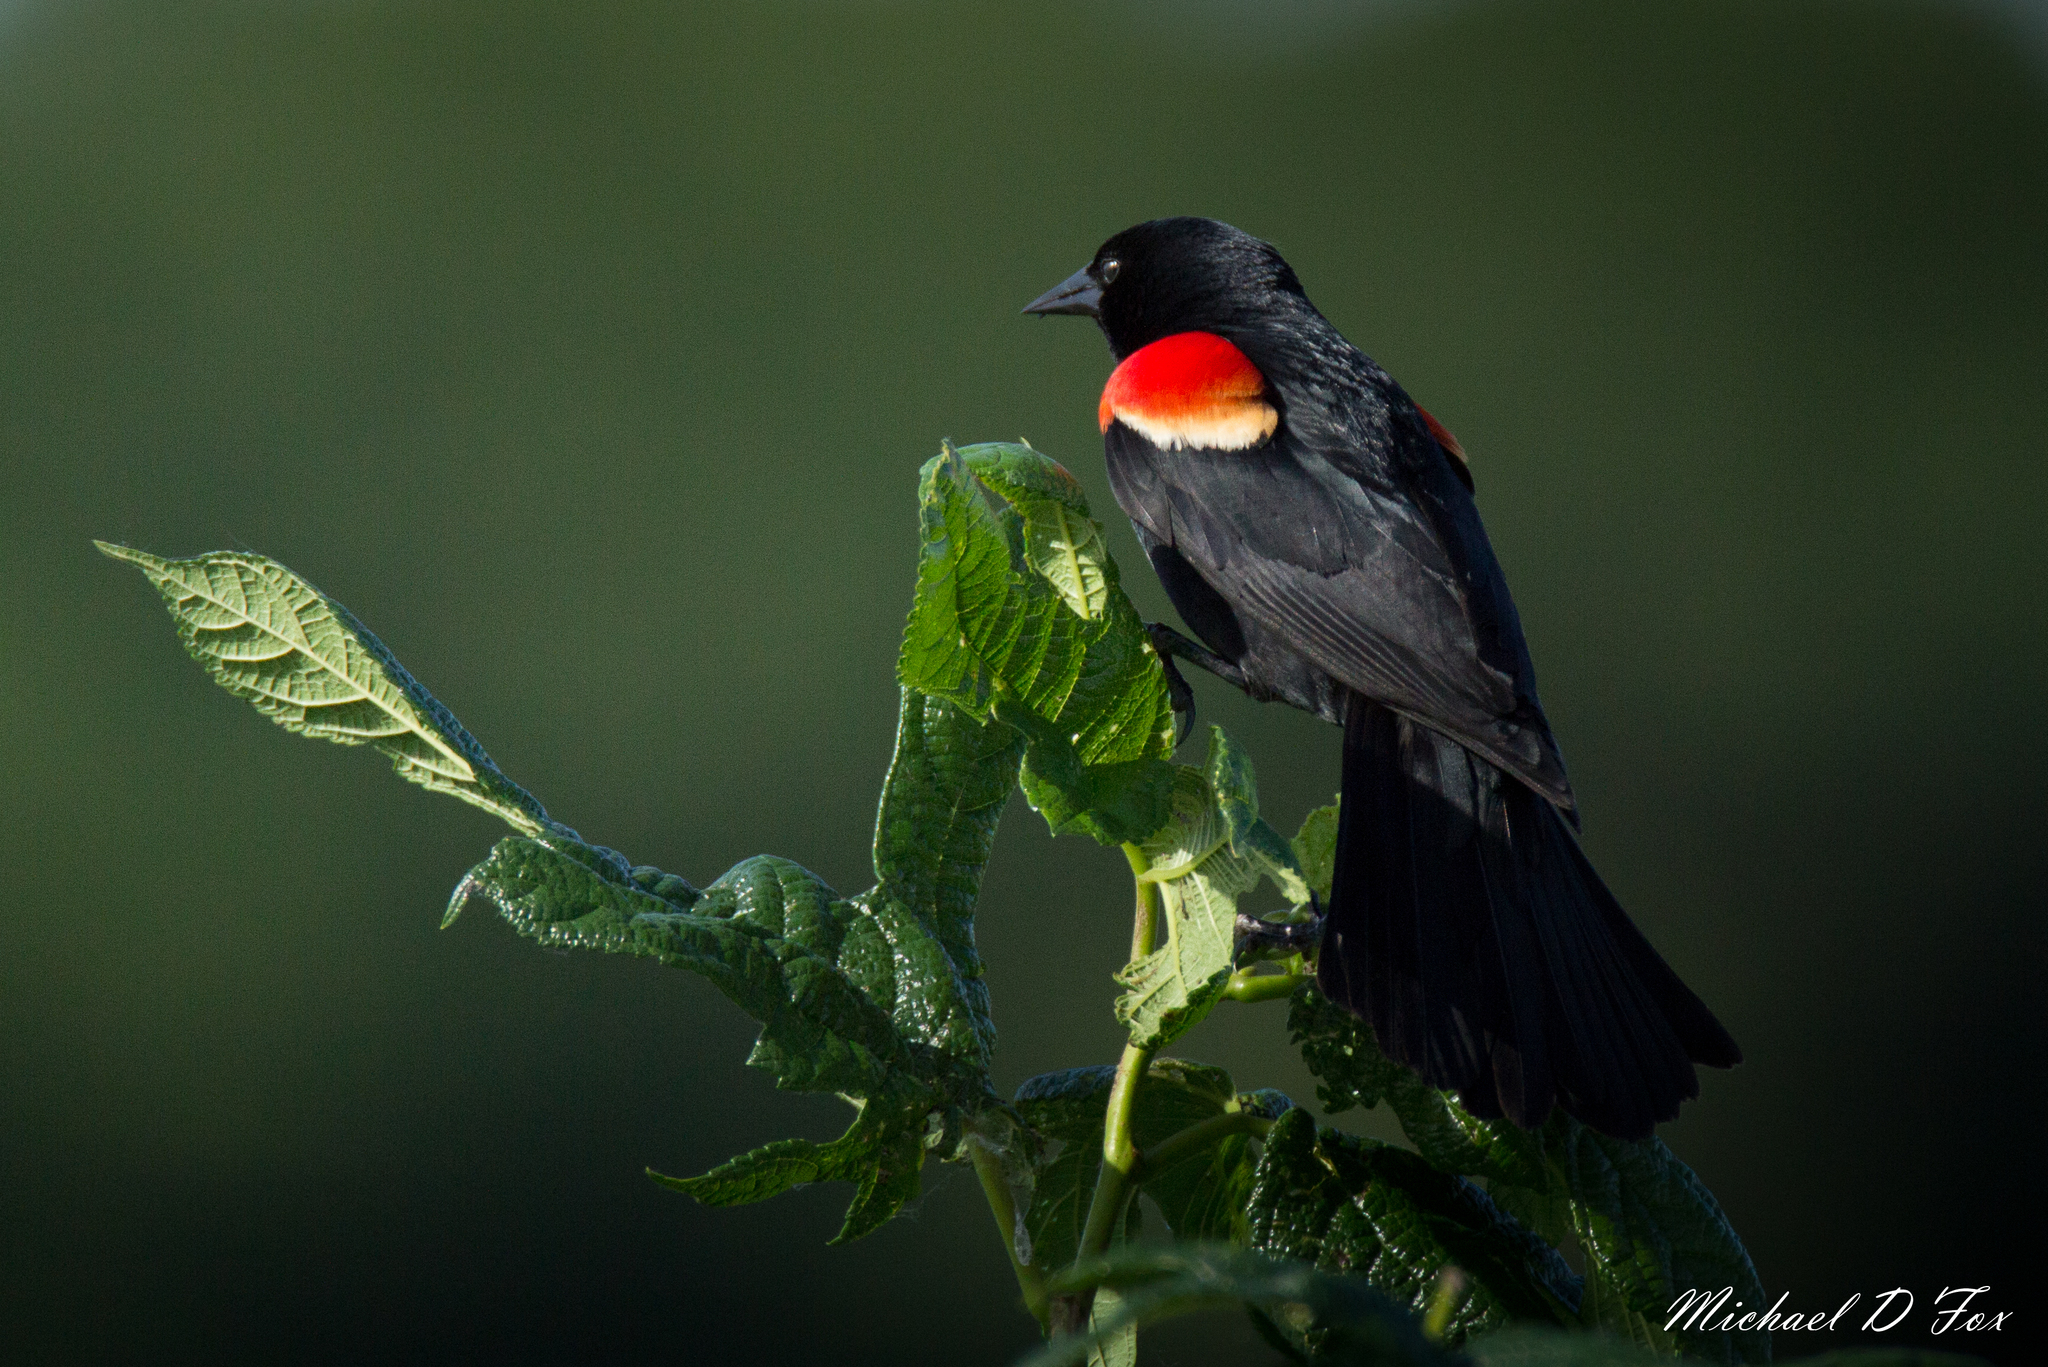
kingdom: Animalia
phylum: Chordata
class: Aves
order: Passeriformes
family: Icteridae
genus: Agelaius
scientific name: Agelaius phoeniceus
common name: Red-winged blackbird
